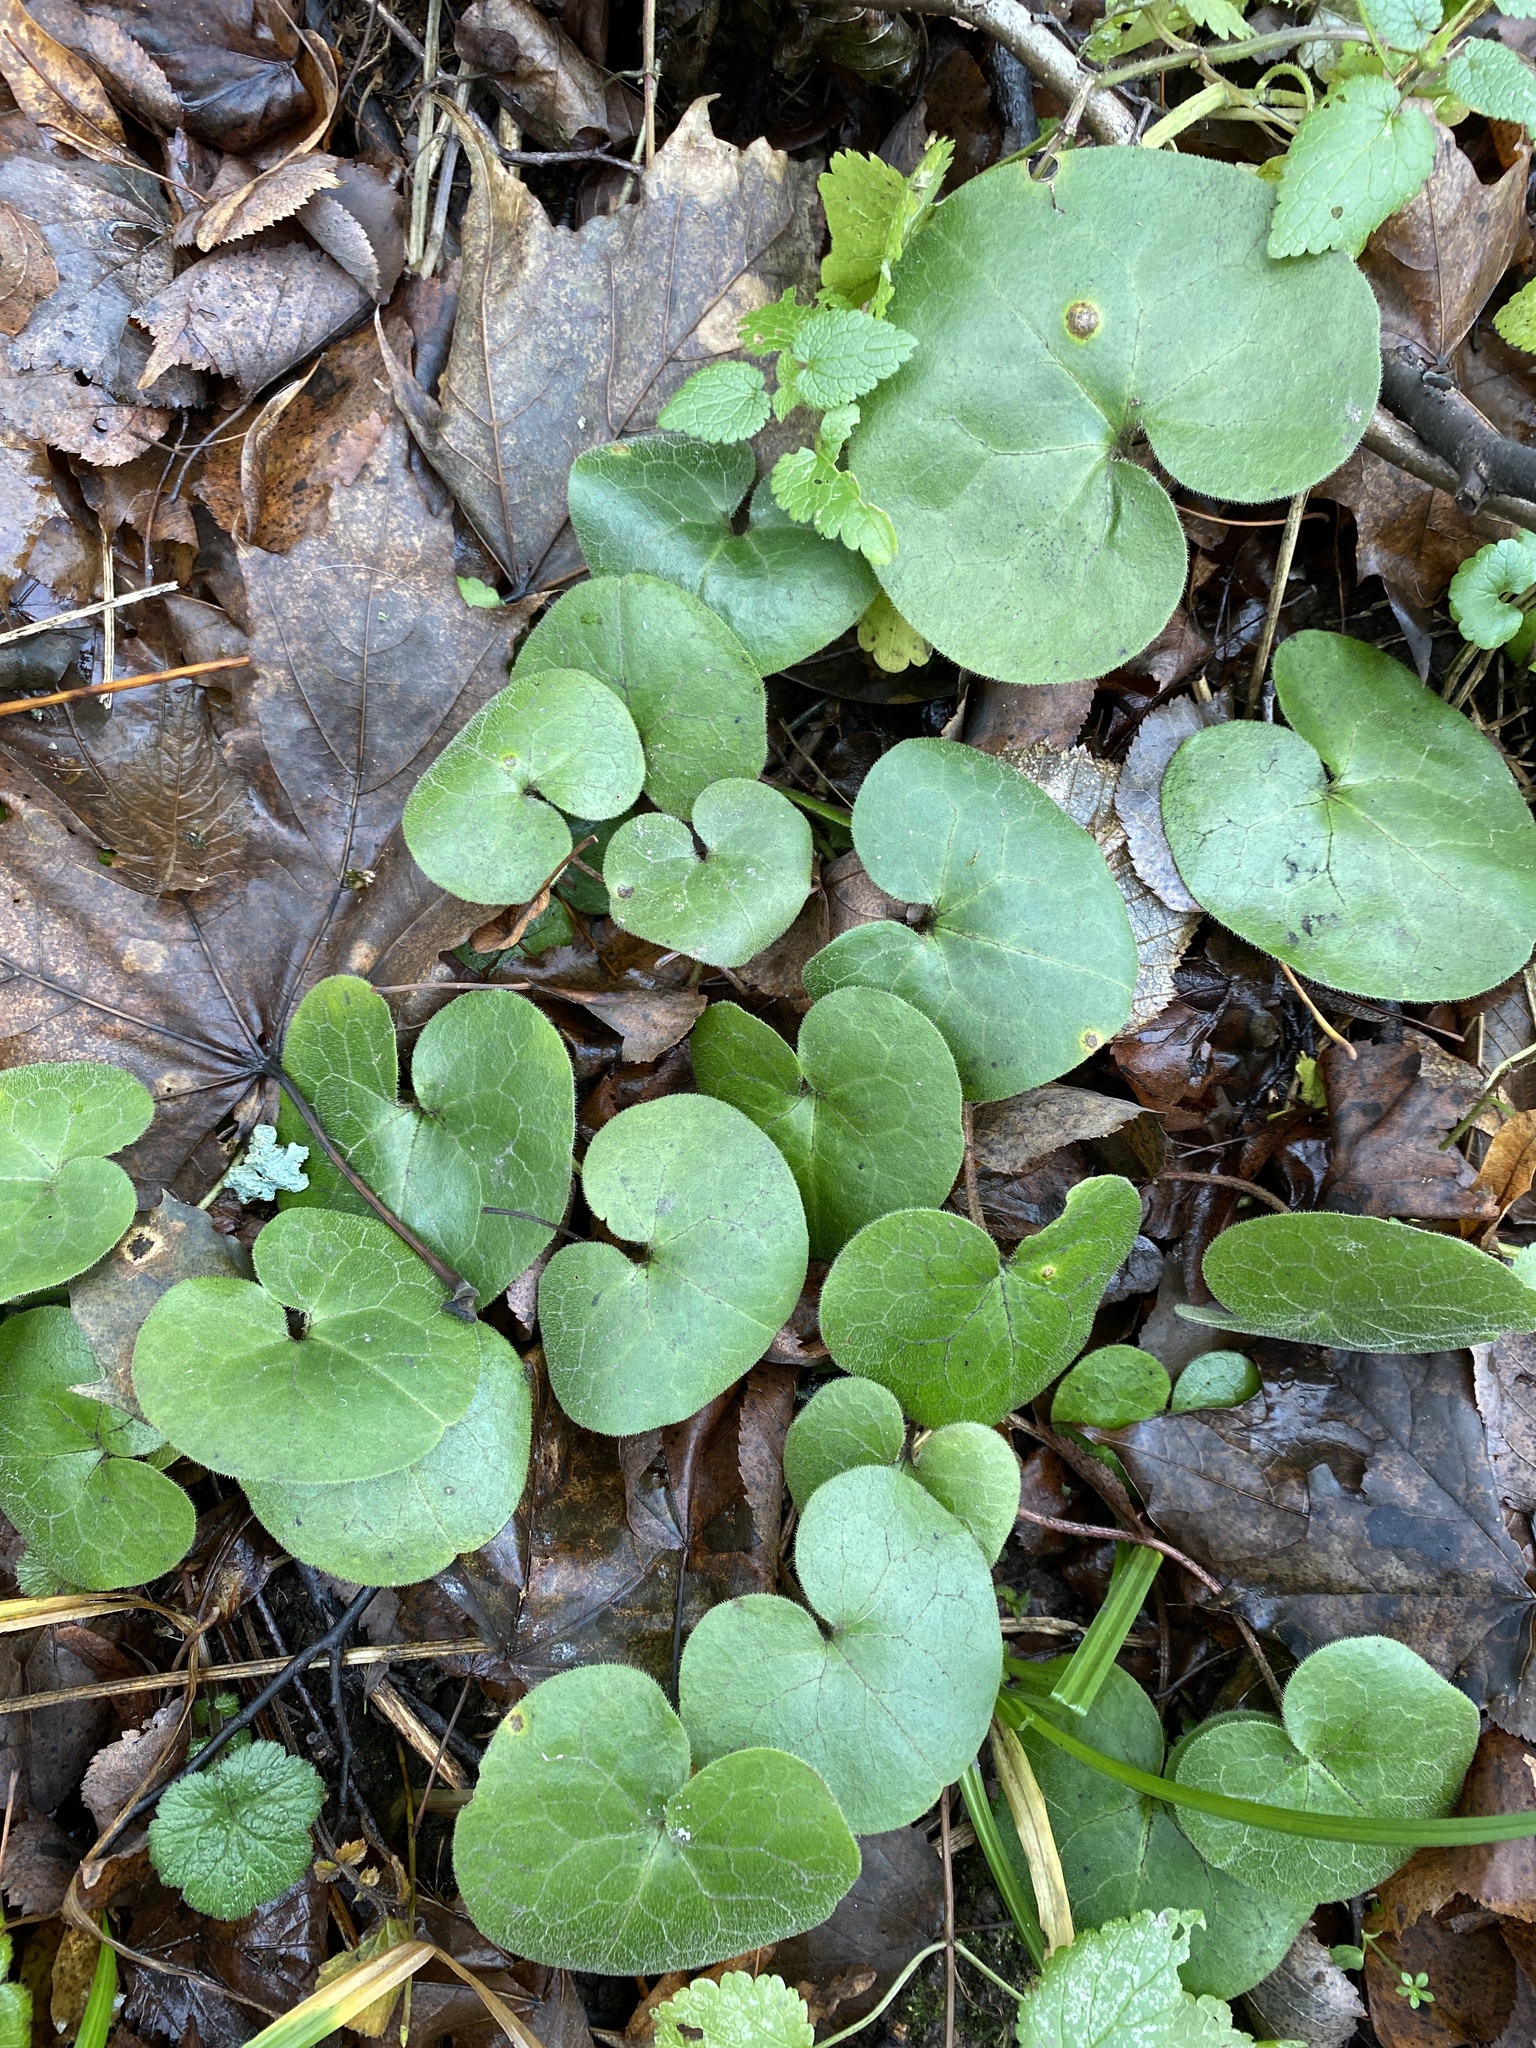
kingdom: Plantae
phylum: Tracheophyta
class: Magnoliopsida
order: Piperales
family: Aristolochiaceae
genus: Asarum
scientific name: Asarum europaeum
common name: Asarabacca
